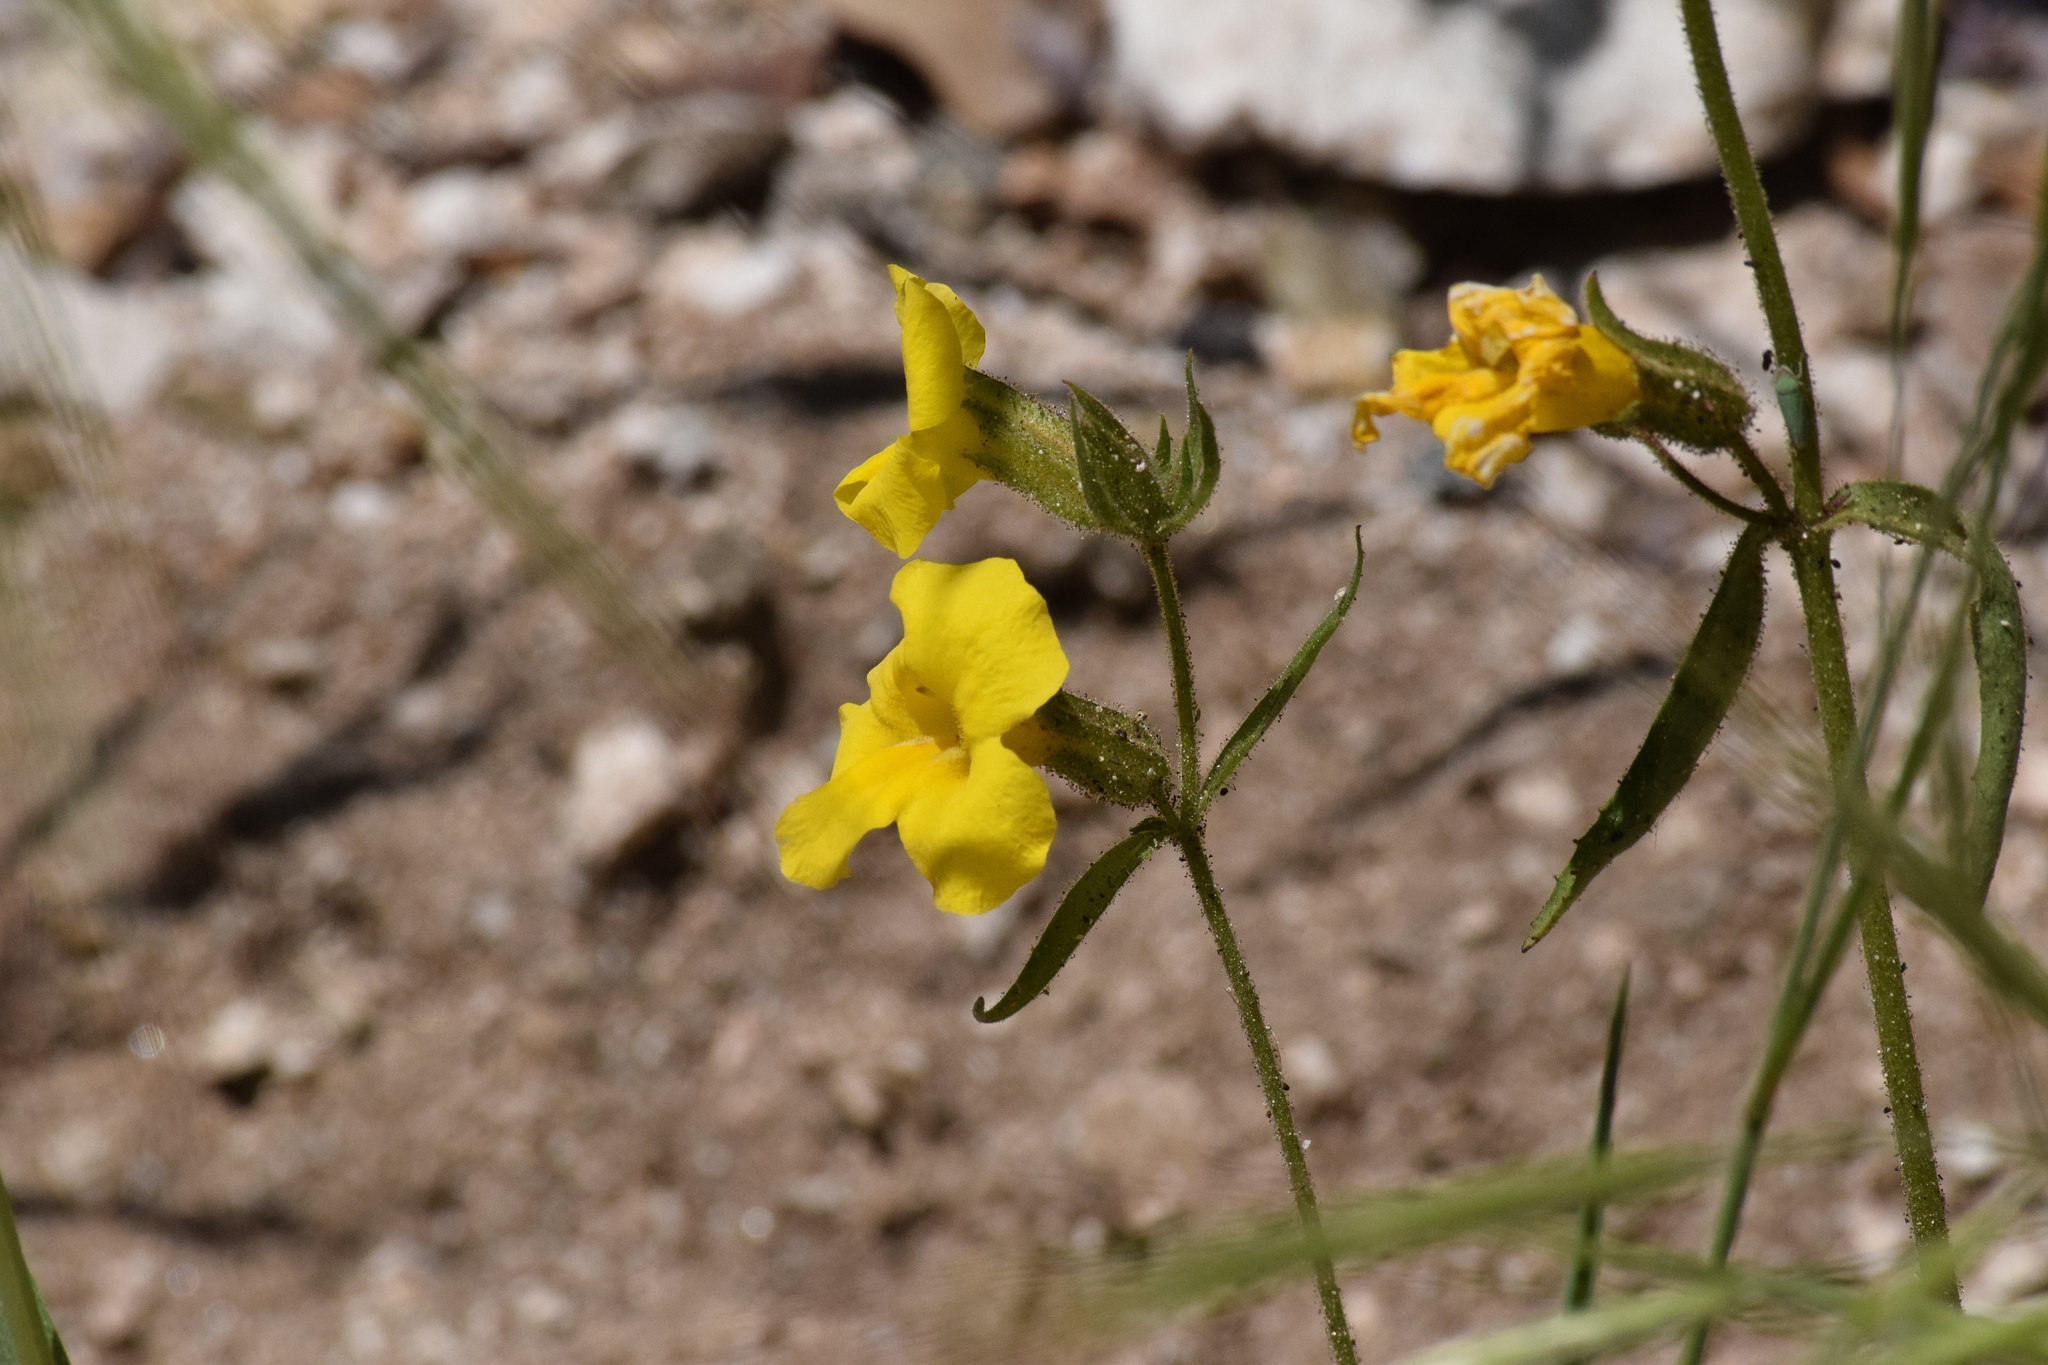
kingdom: Plantae
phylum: Tracheophyta
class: Magnoliopsida
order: Lamiales
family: Phrymaceae
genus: Diplacus
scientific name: Diplacus brevipes
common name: Wide-throat yellow monkey-flower
